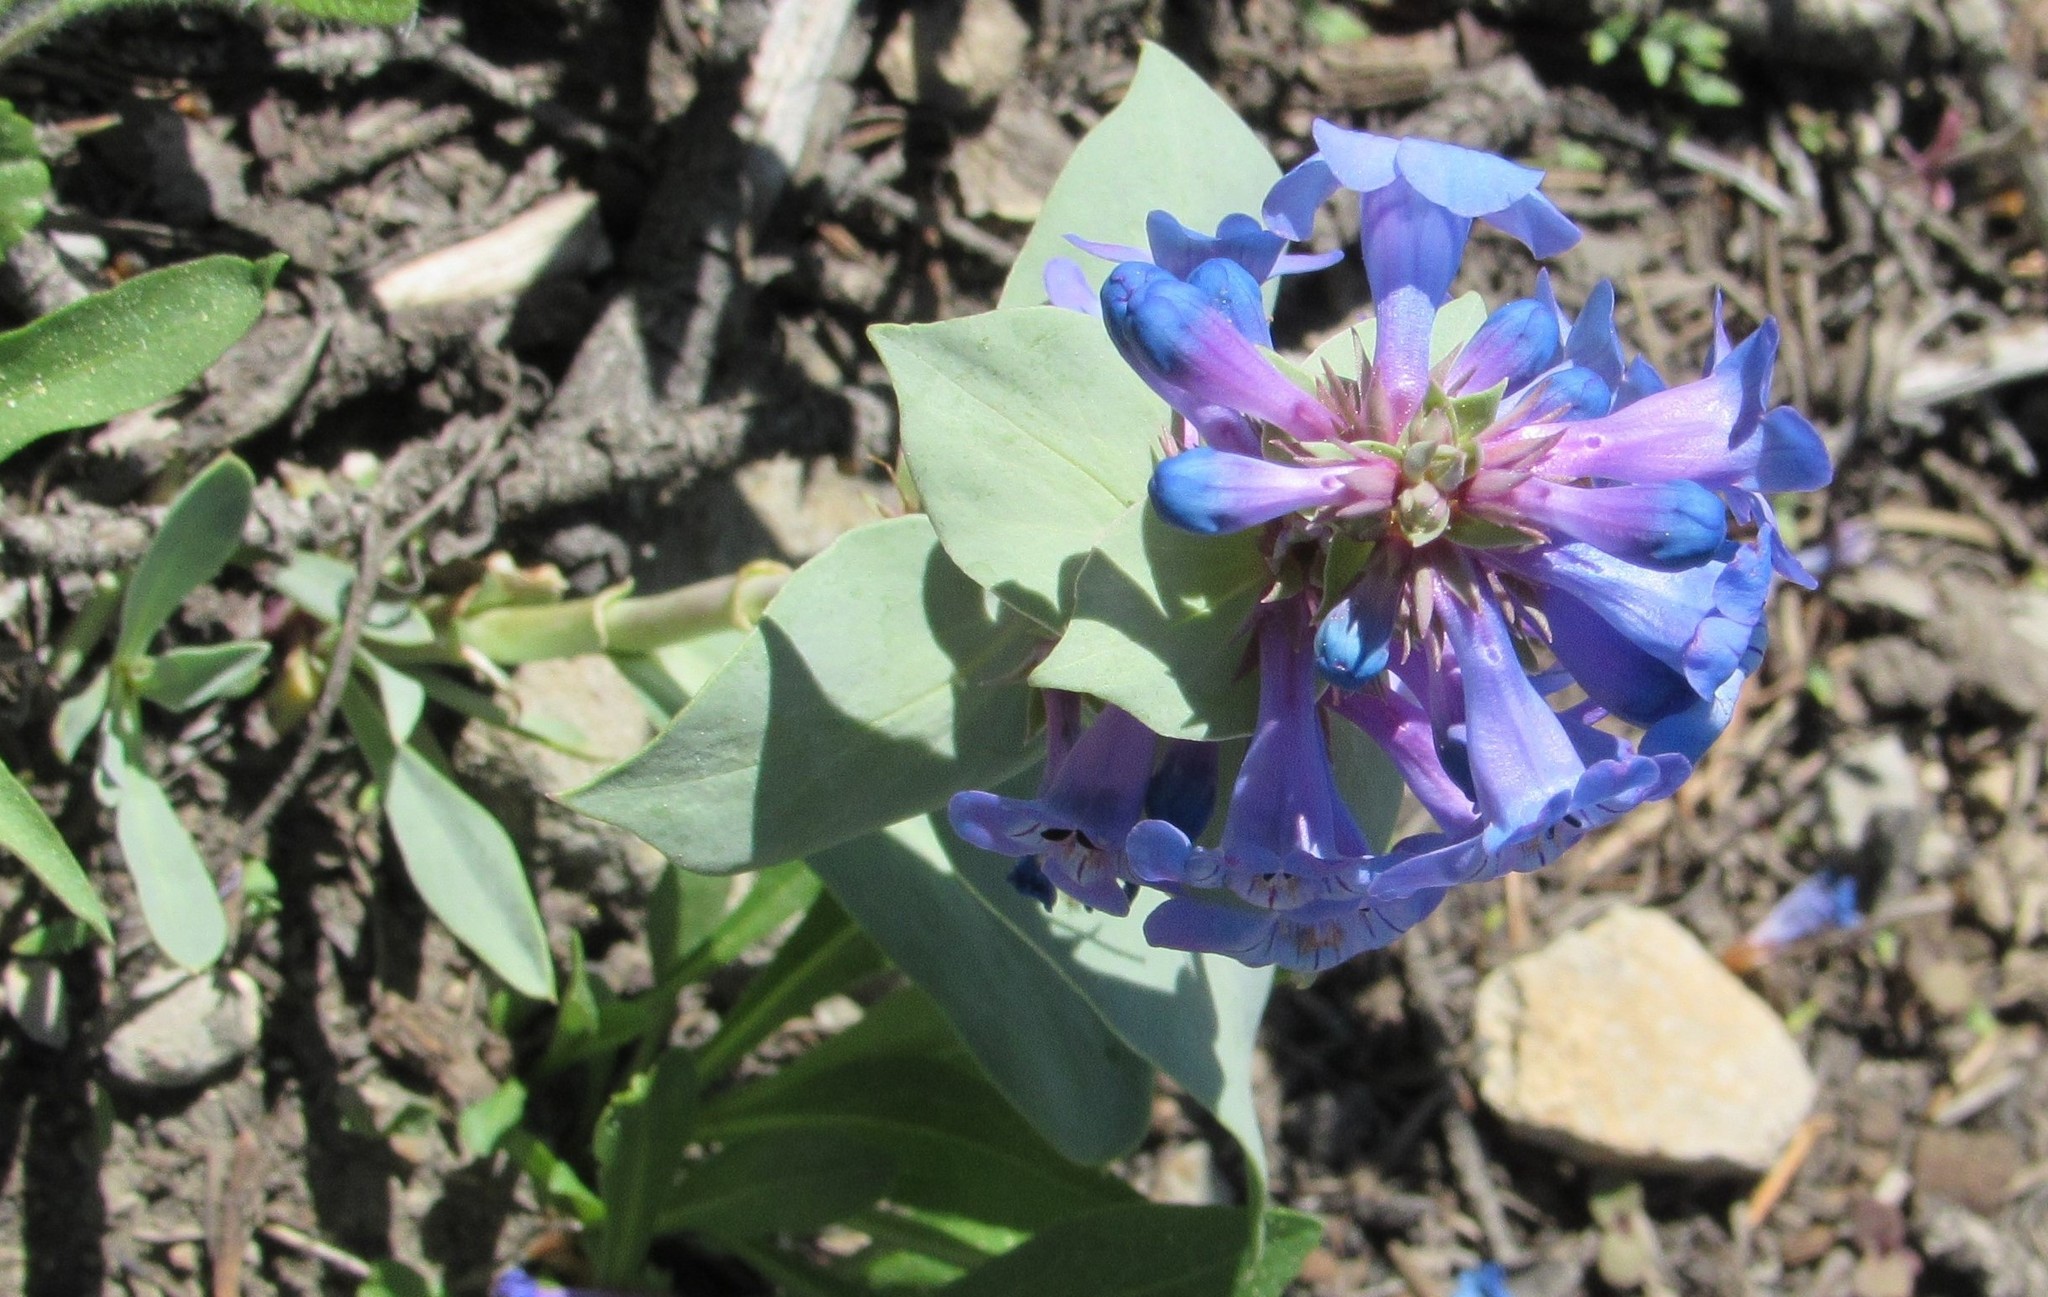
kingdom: Plantae
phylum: Tracheophyta
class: Magnoliopsida
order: Lamiales
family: Plantaginaceae
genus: Penstemon
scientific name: Penstemon nitidus
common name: Shining penstemon
